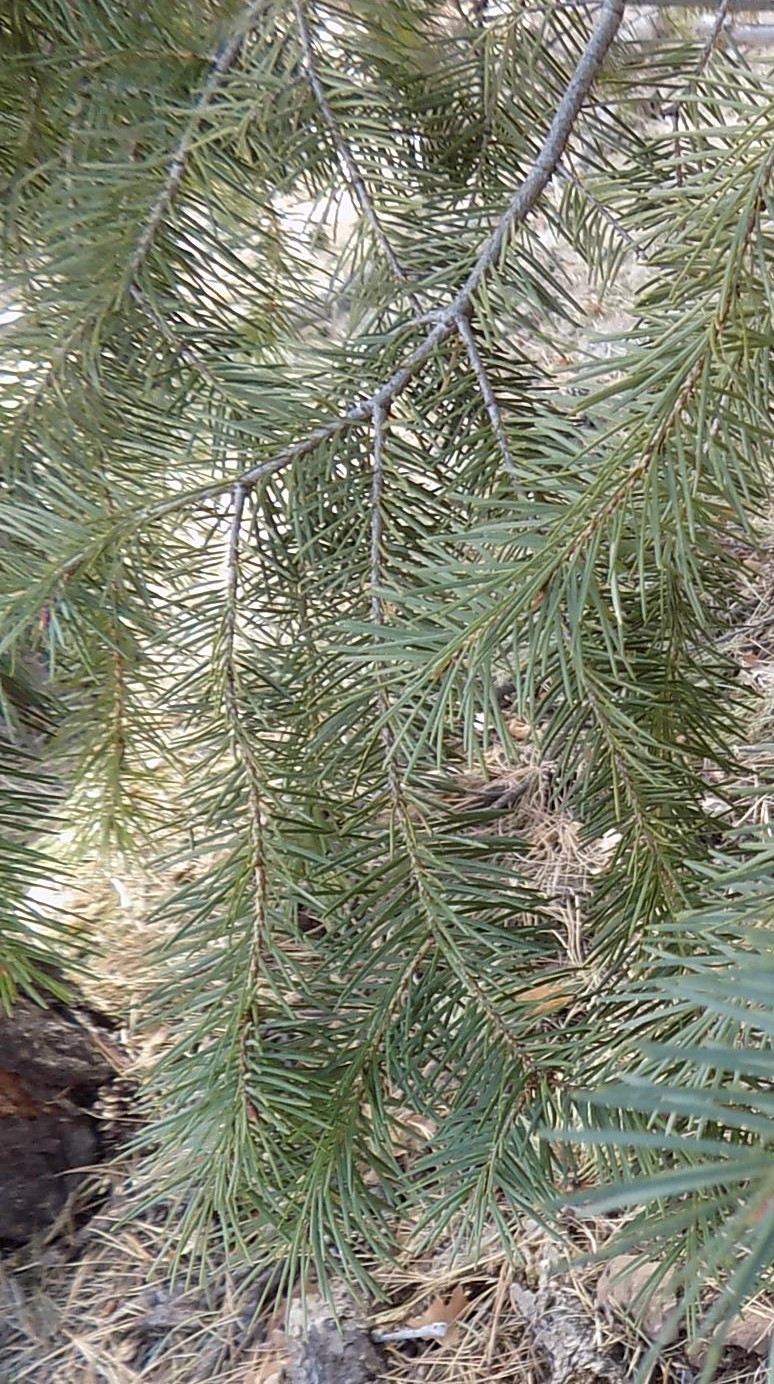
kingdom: Plantae
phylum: Tracheophyta
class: Pinopsida
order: Pinales
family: Pinaceae
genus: Pseudotsuga
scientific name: Pseudotsuga menziesii
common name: Douglas fir
